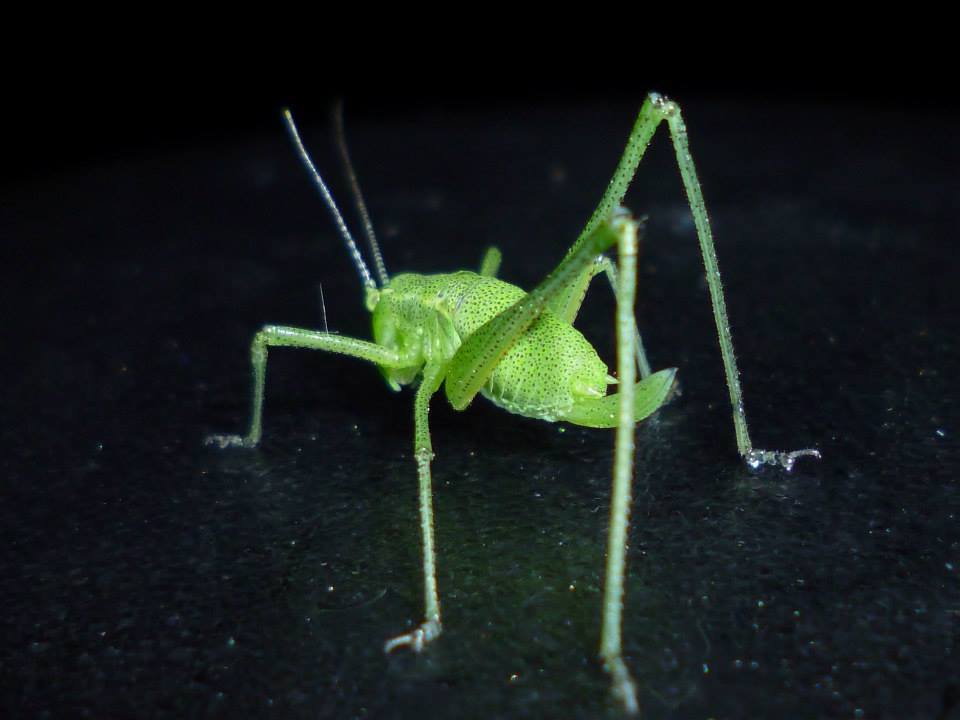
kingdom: Animalia
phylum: Arthropoda
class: Insecta
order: Orthoptera
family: Tettigoniidae
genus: Leptophyes
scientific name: Leptophyes boscii
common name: Balkan speckled bush-cricket
